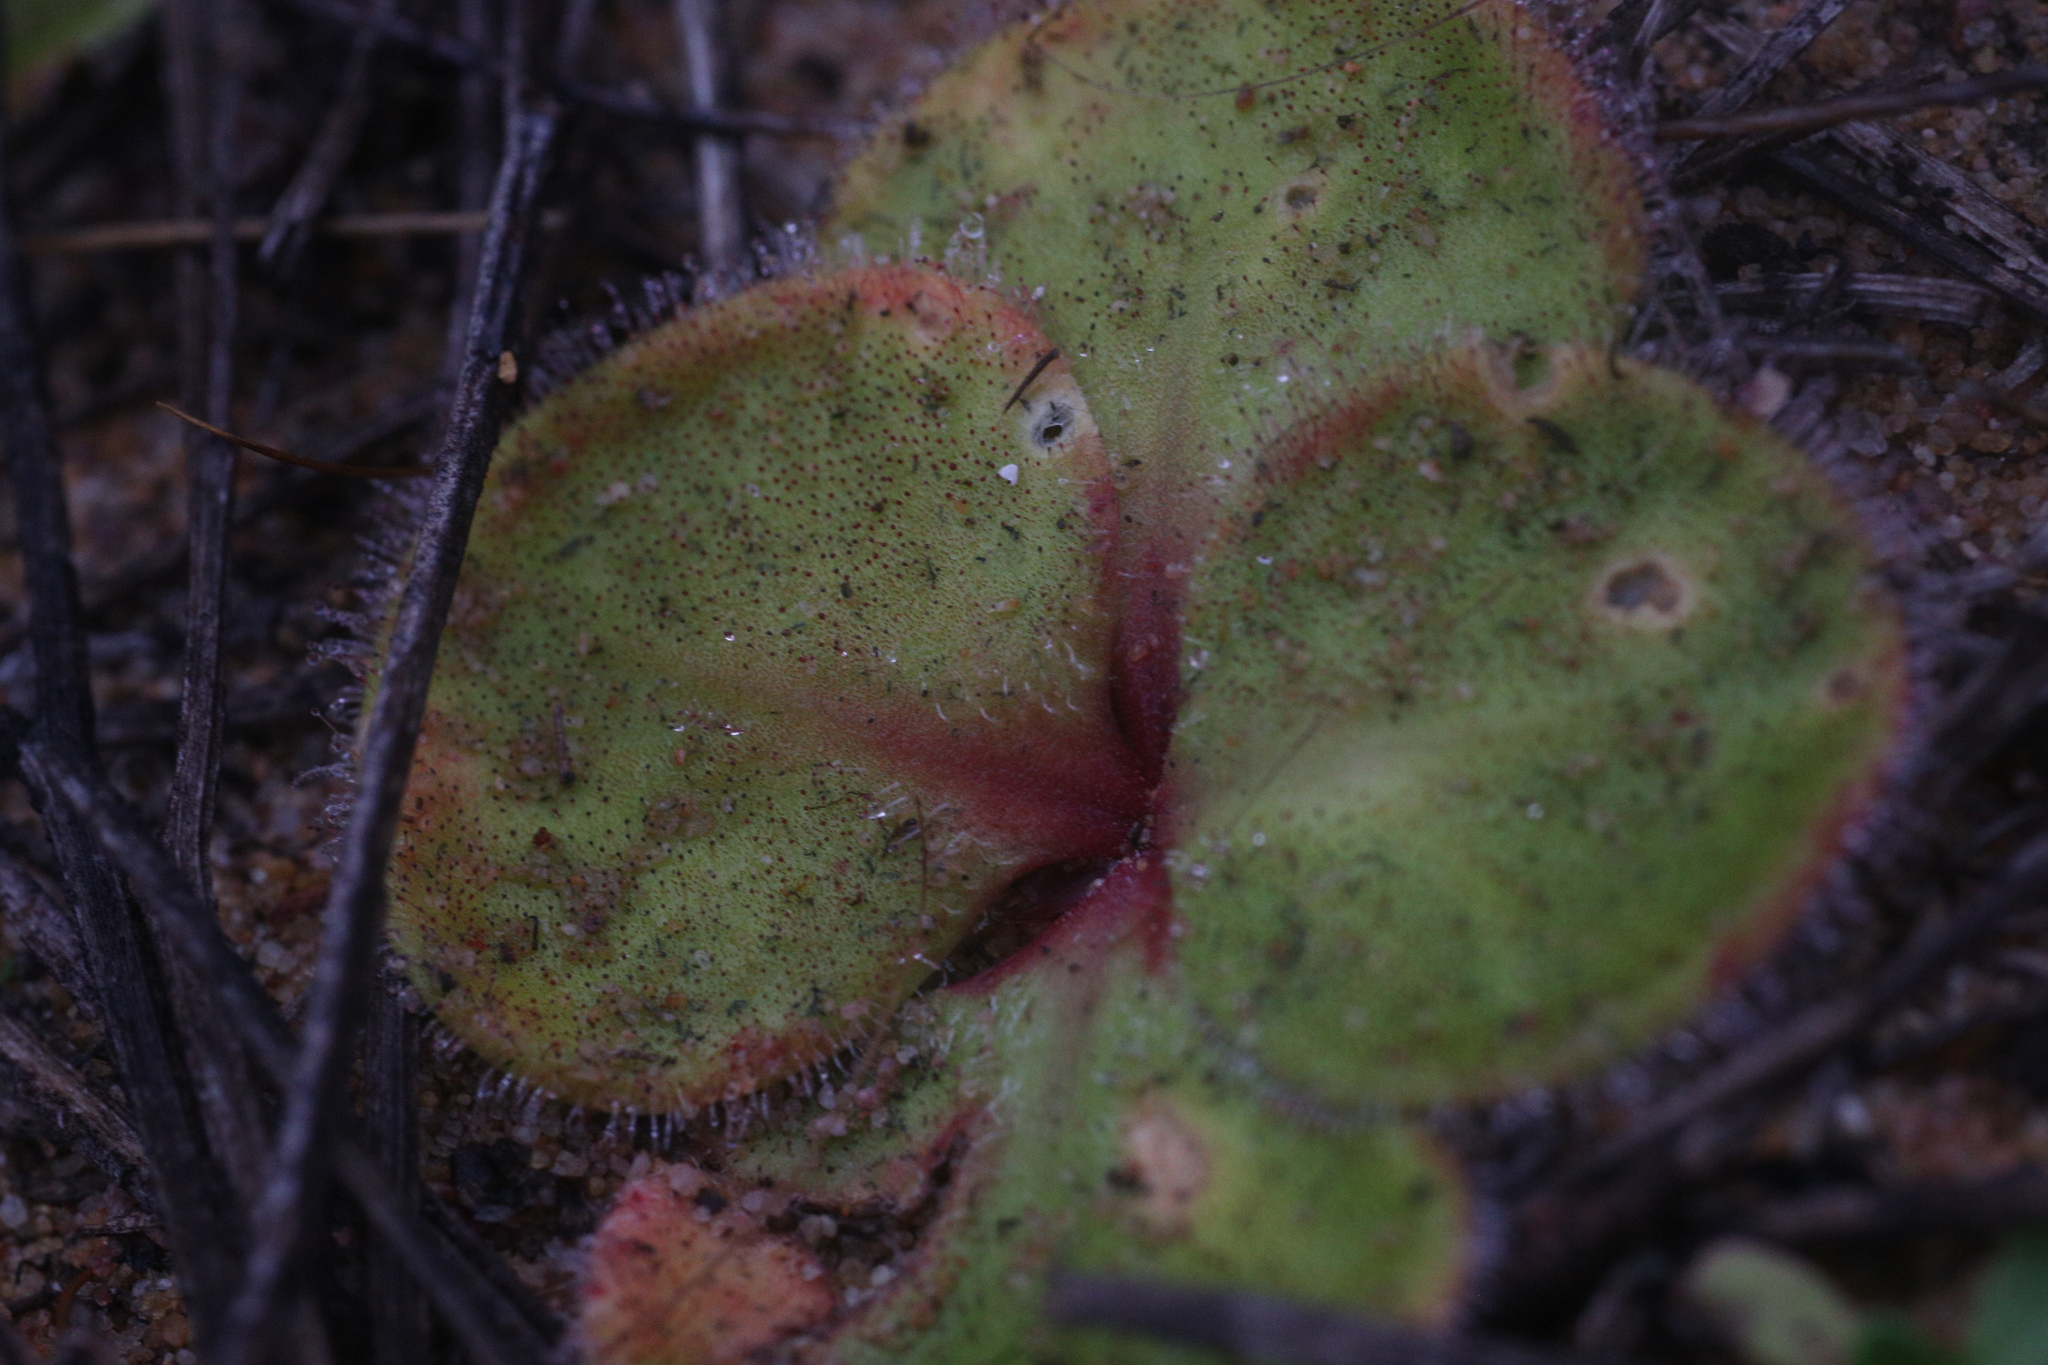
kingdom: Plantae
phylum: Tracheophyta
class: Magnoliopsida
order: Caryophyllales
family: Droseraceae
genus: Drosera
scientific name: Drosera erythrorhiza
